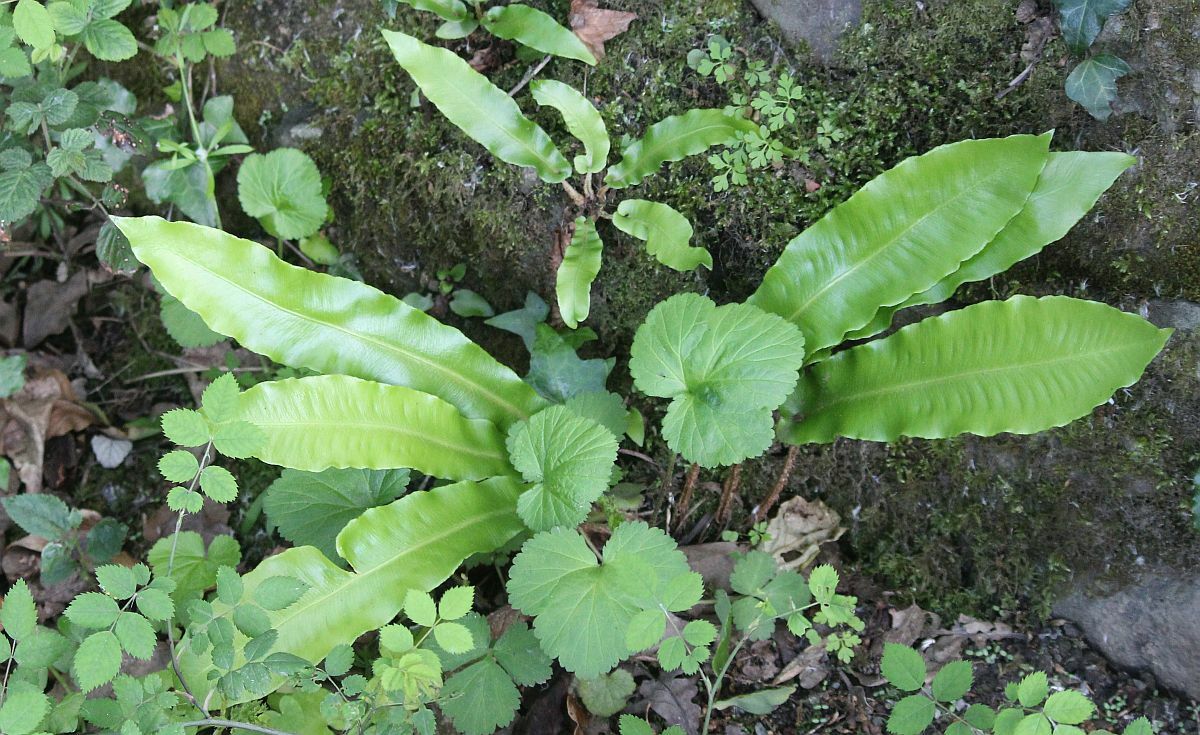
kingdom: Plantae
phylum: Tracheophyta
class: Polypodiopsida
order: Polypodiales
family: Aspleniaceae
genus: Asplenium
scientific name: Asplenium scolopendrium
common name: Hart's-tongue fern
